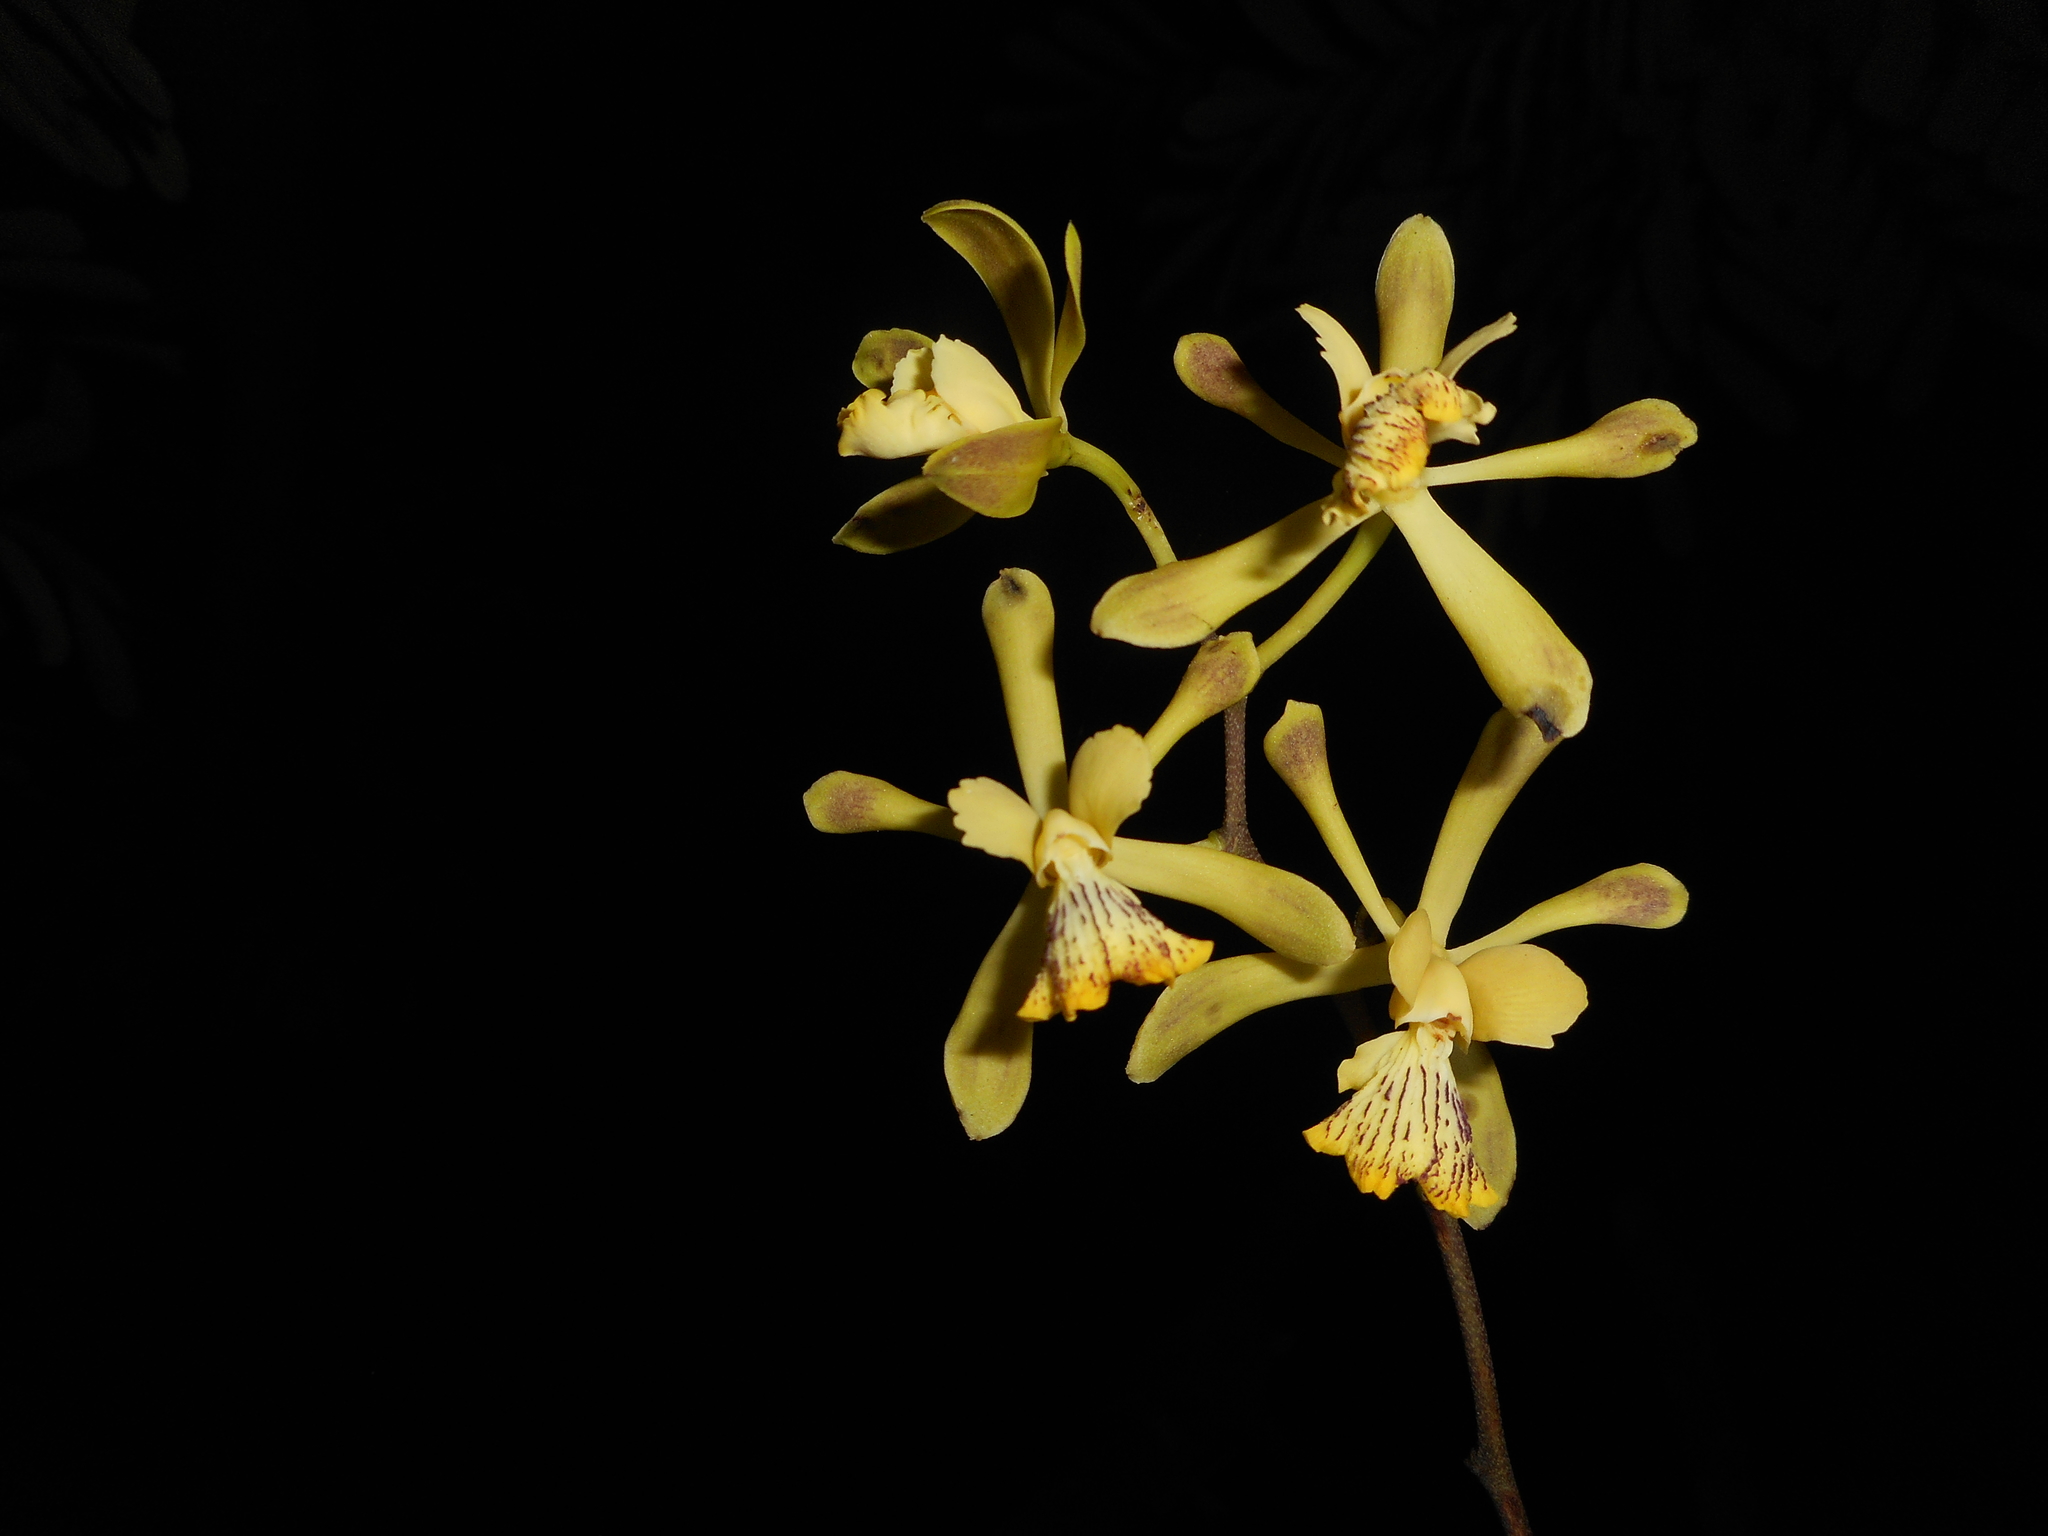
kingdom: Plantae
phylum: Tracheophyta
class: Liliopsida
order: Asparagales
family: Orchidaceae
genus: Encyclia
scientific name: Encyclia alata
